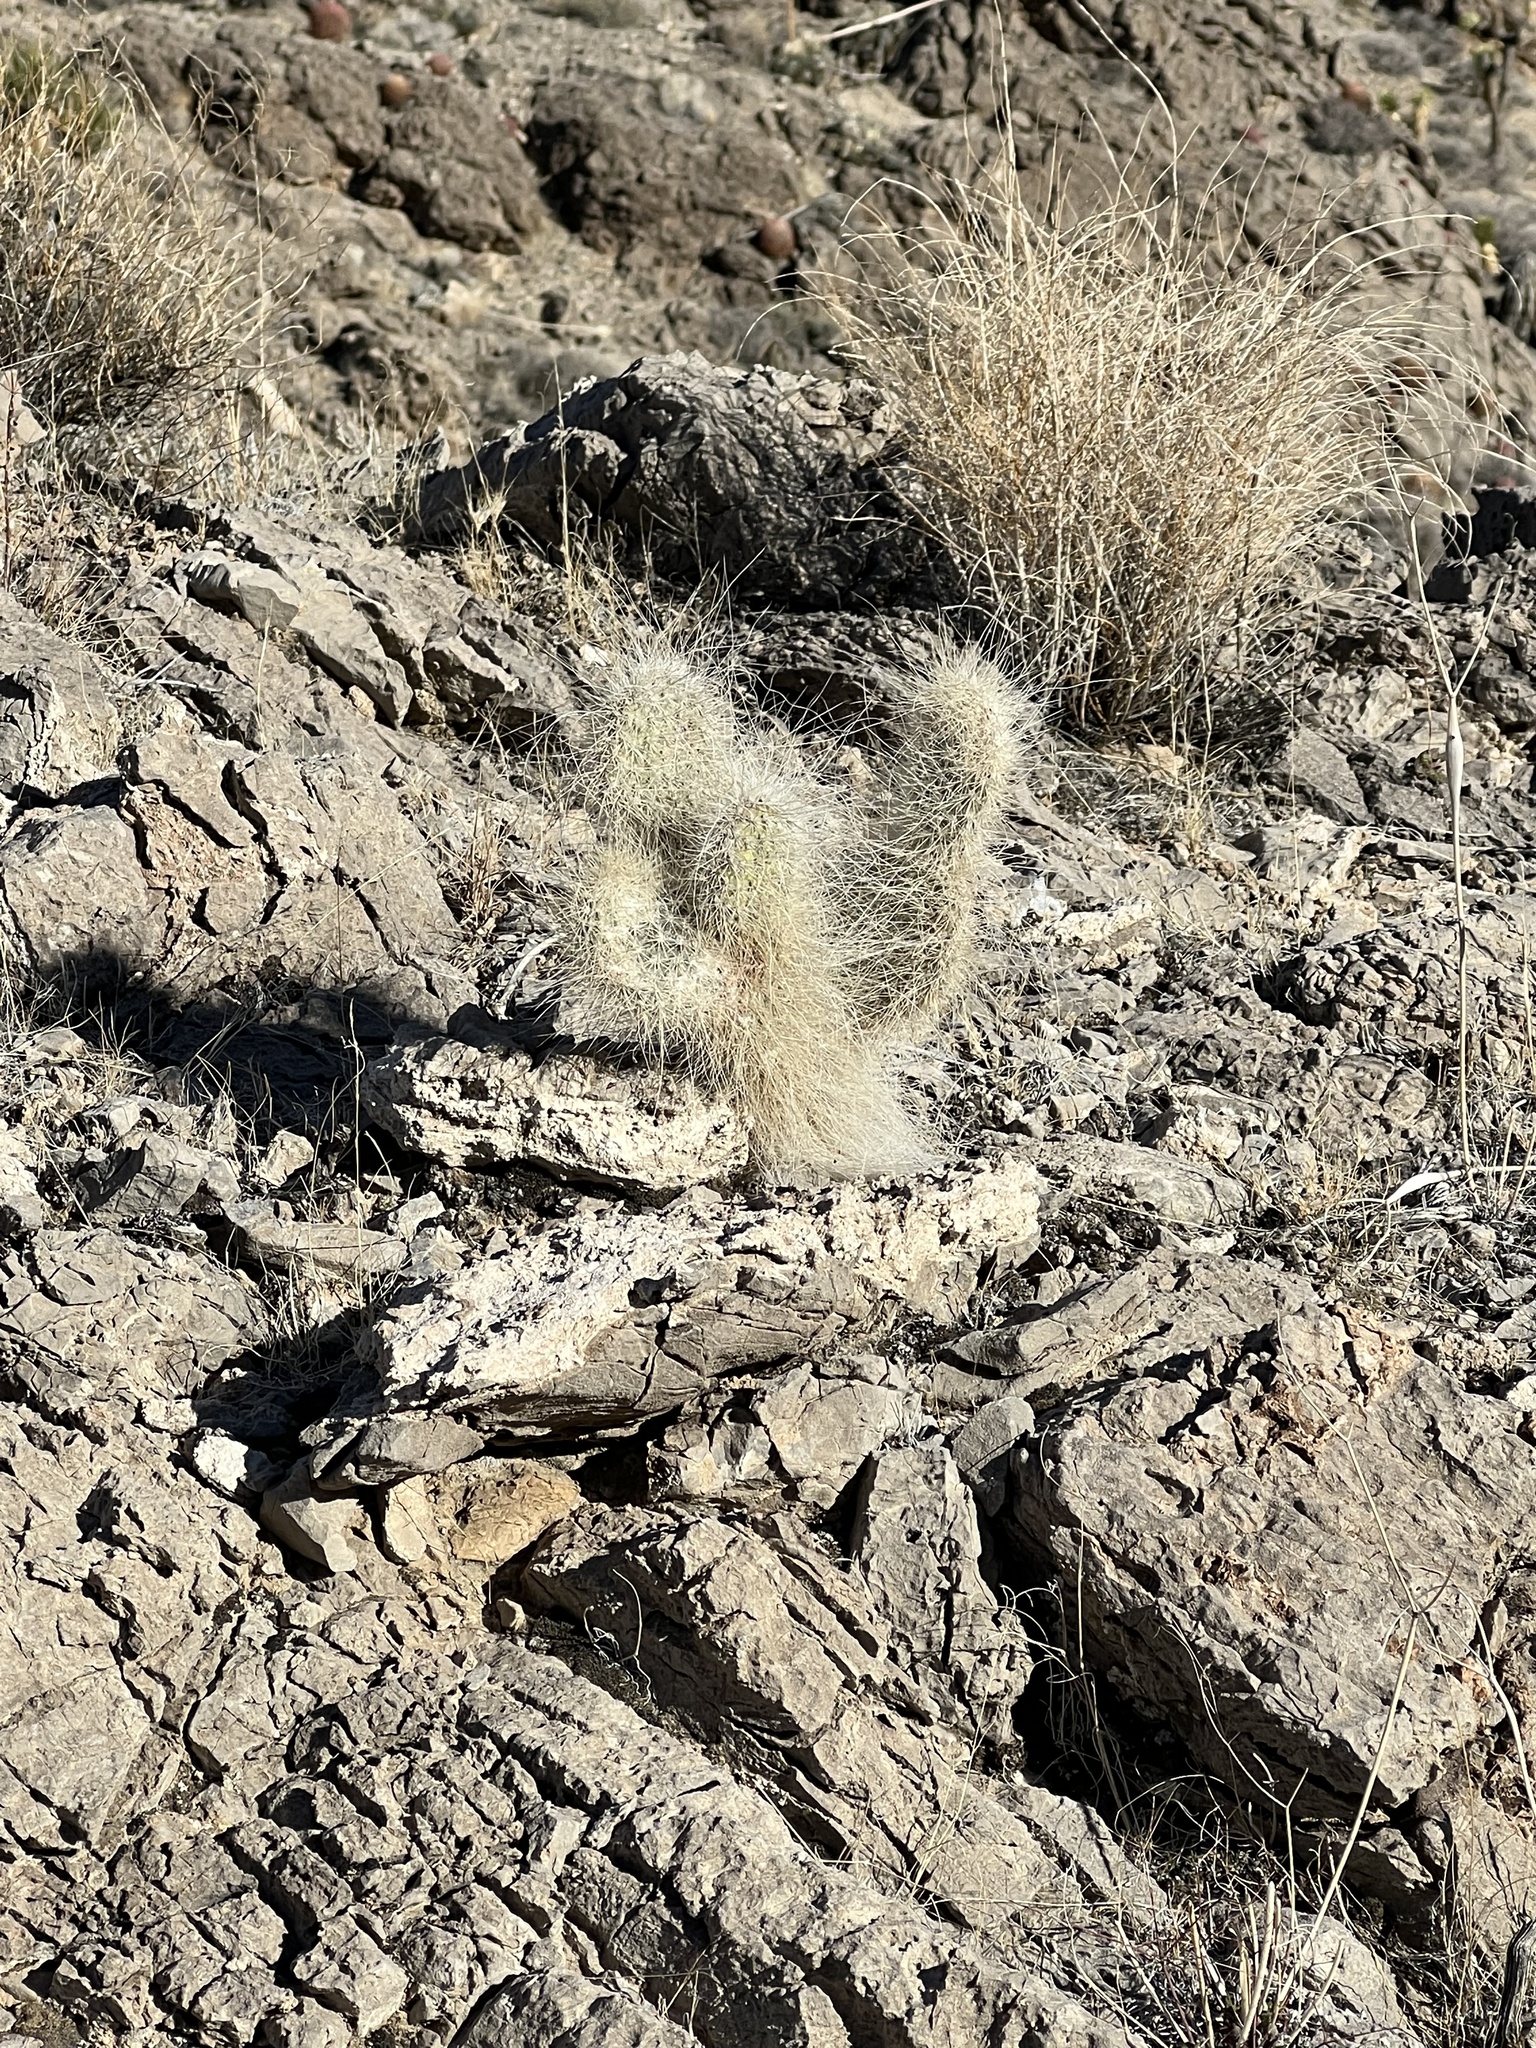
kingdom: Plantae
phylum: Tracheophyta
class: Magnoliopsida
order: Caryophyllales
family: Cactaceae
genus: Opuntia
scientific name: Opuntia polyacantha
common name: Plains prickly-pear
